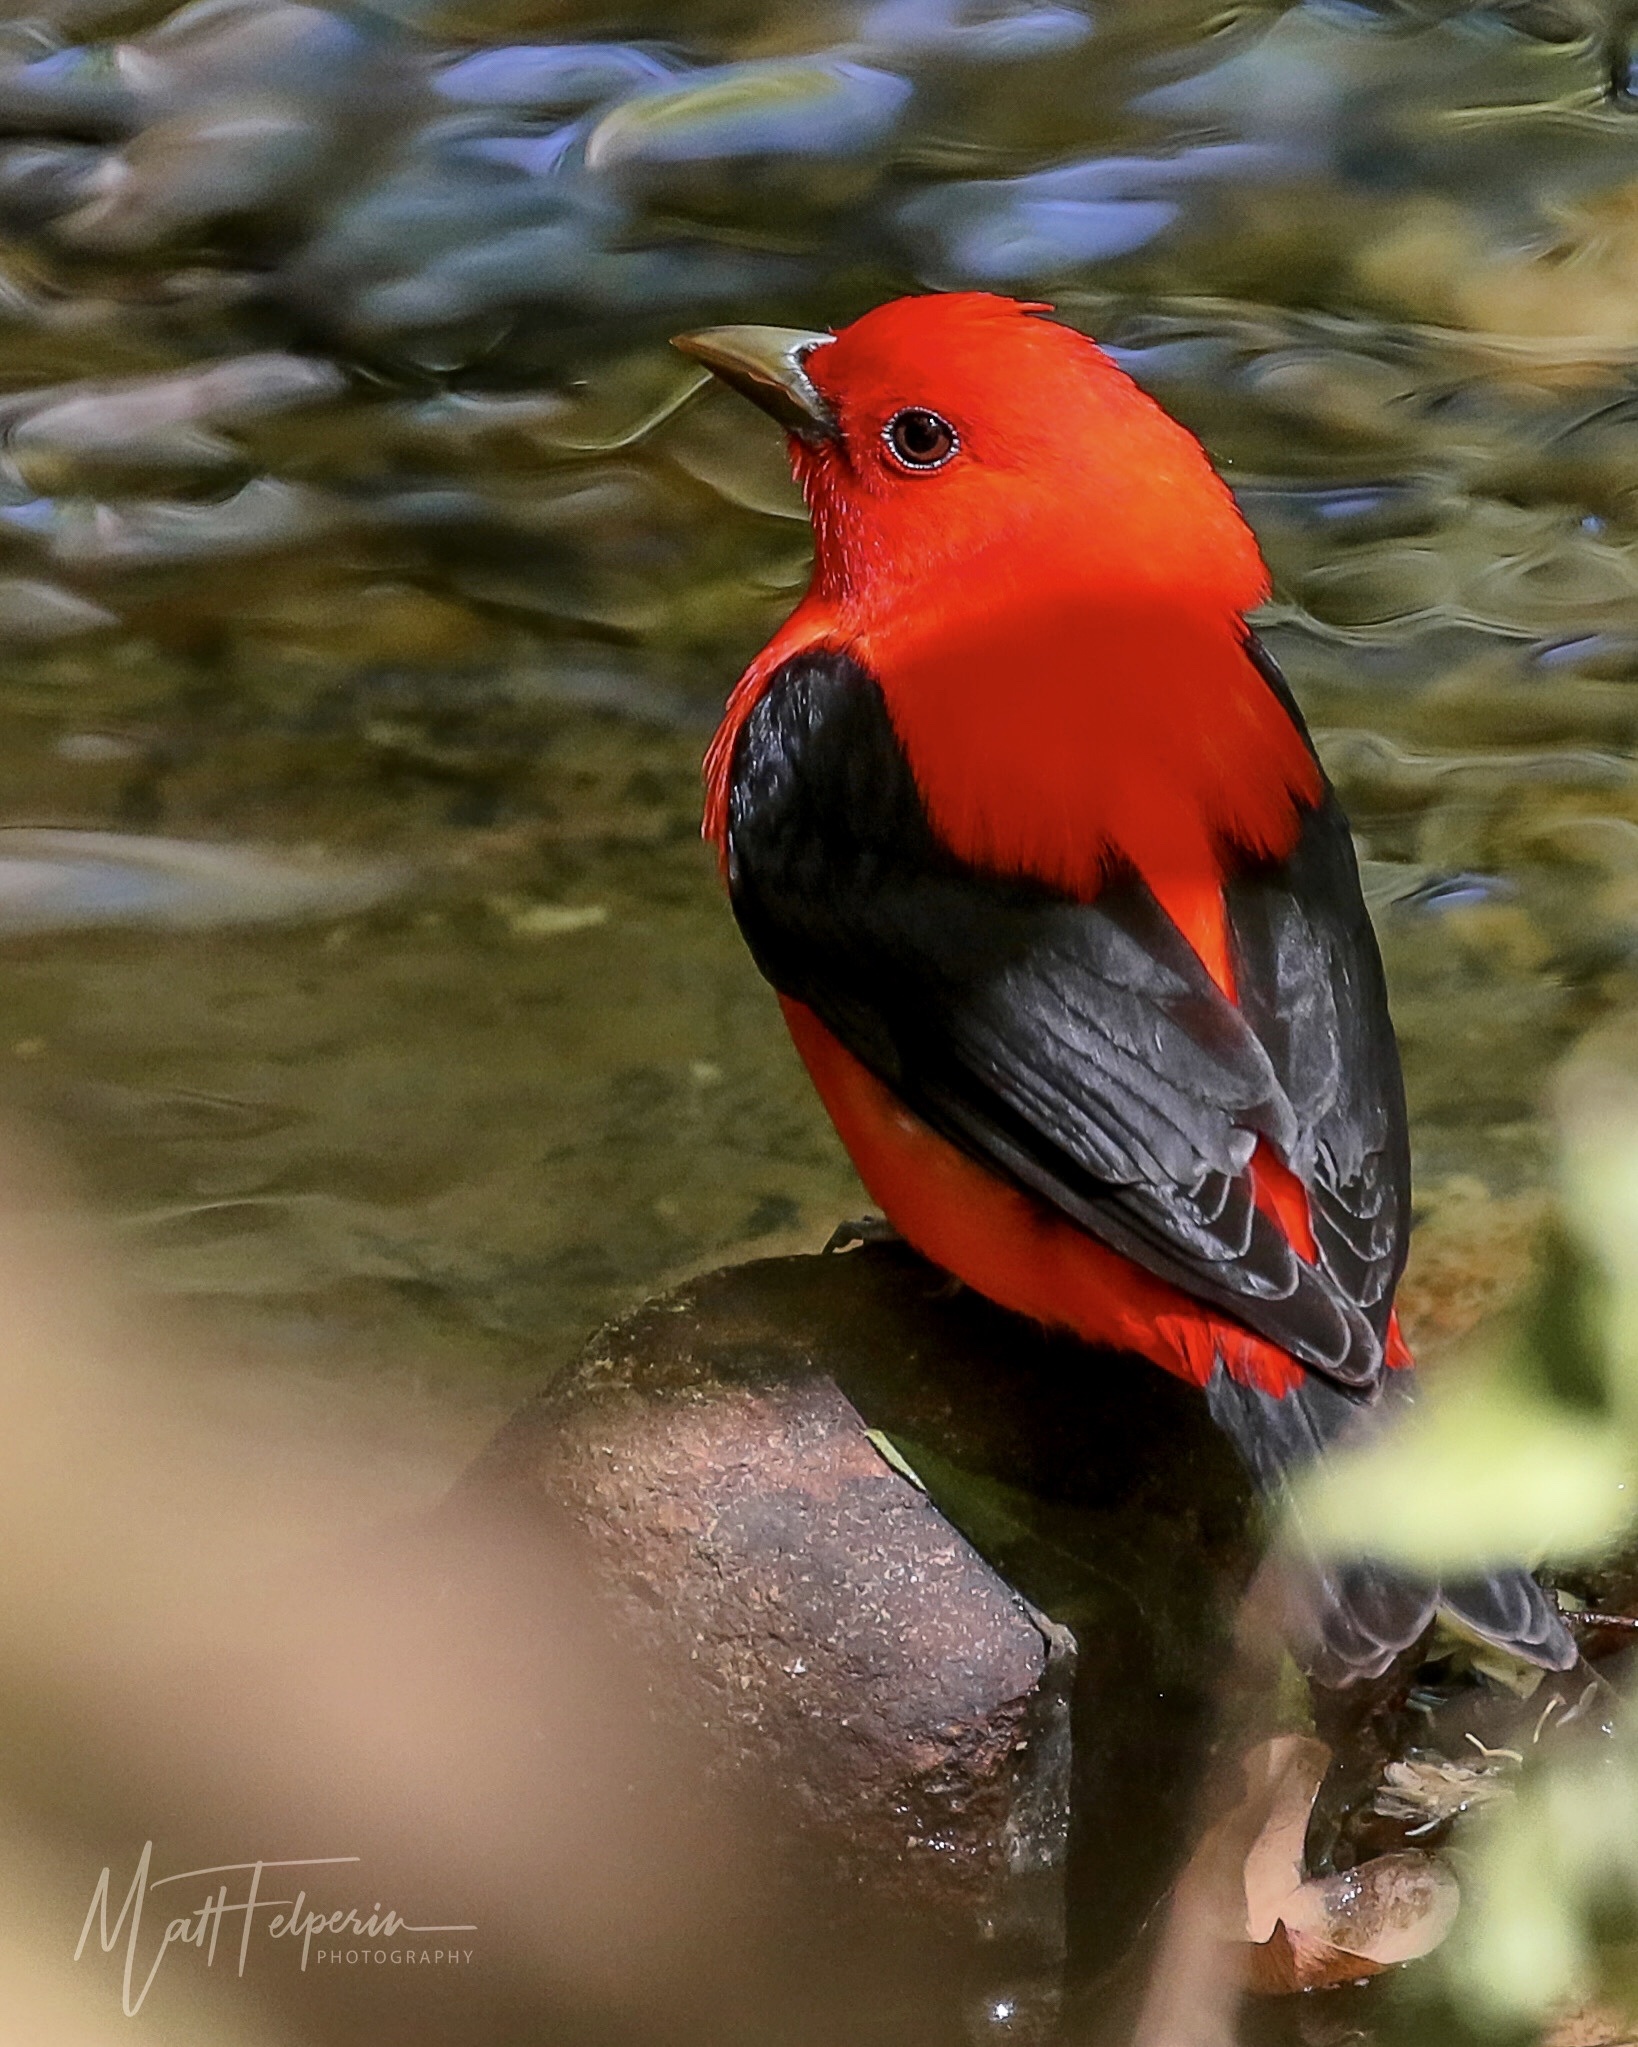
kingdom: Animalia
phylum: Chordata
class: Aves
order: Passeriformes
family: Cardinalidae
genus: Piranga
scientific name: Piranga olivacea
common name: Scarlet tanager
